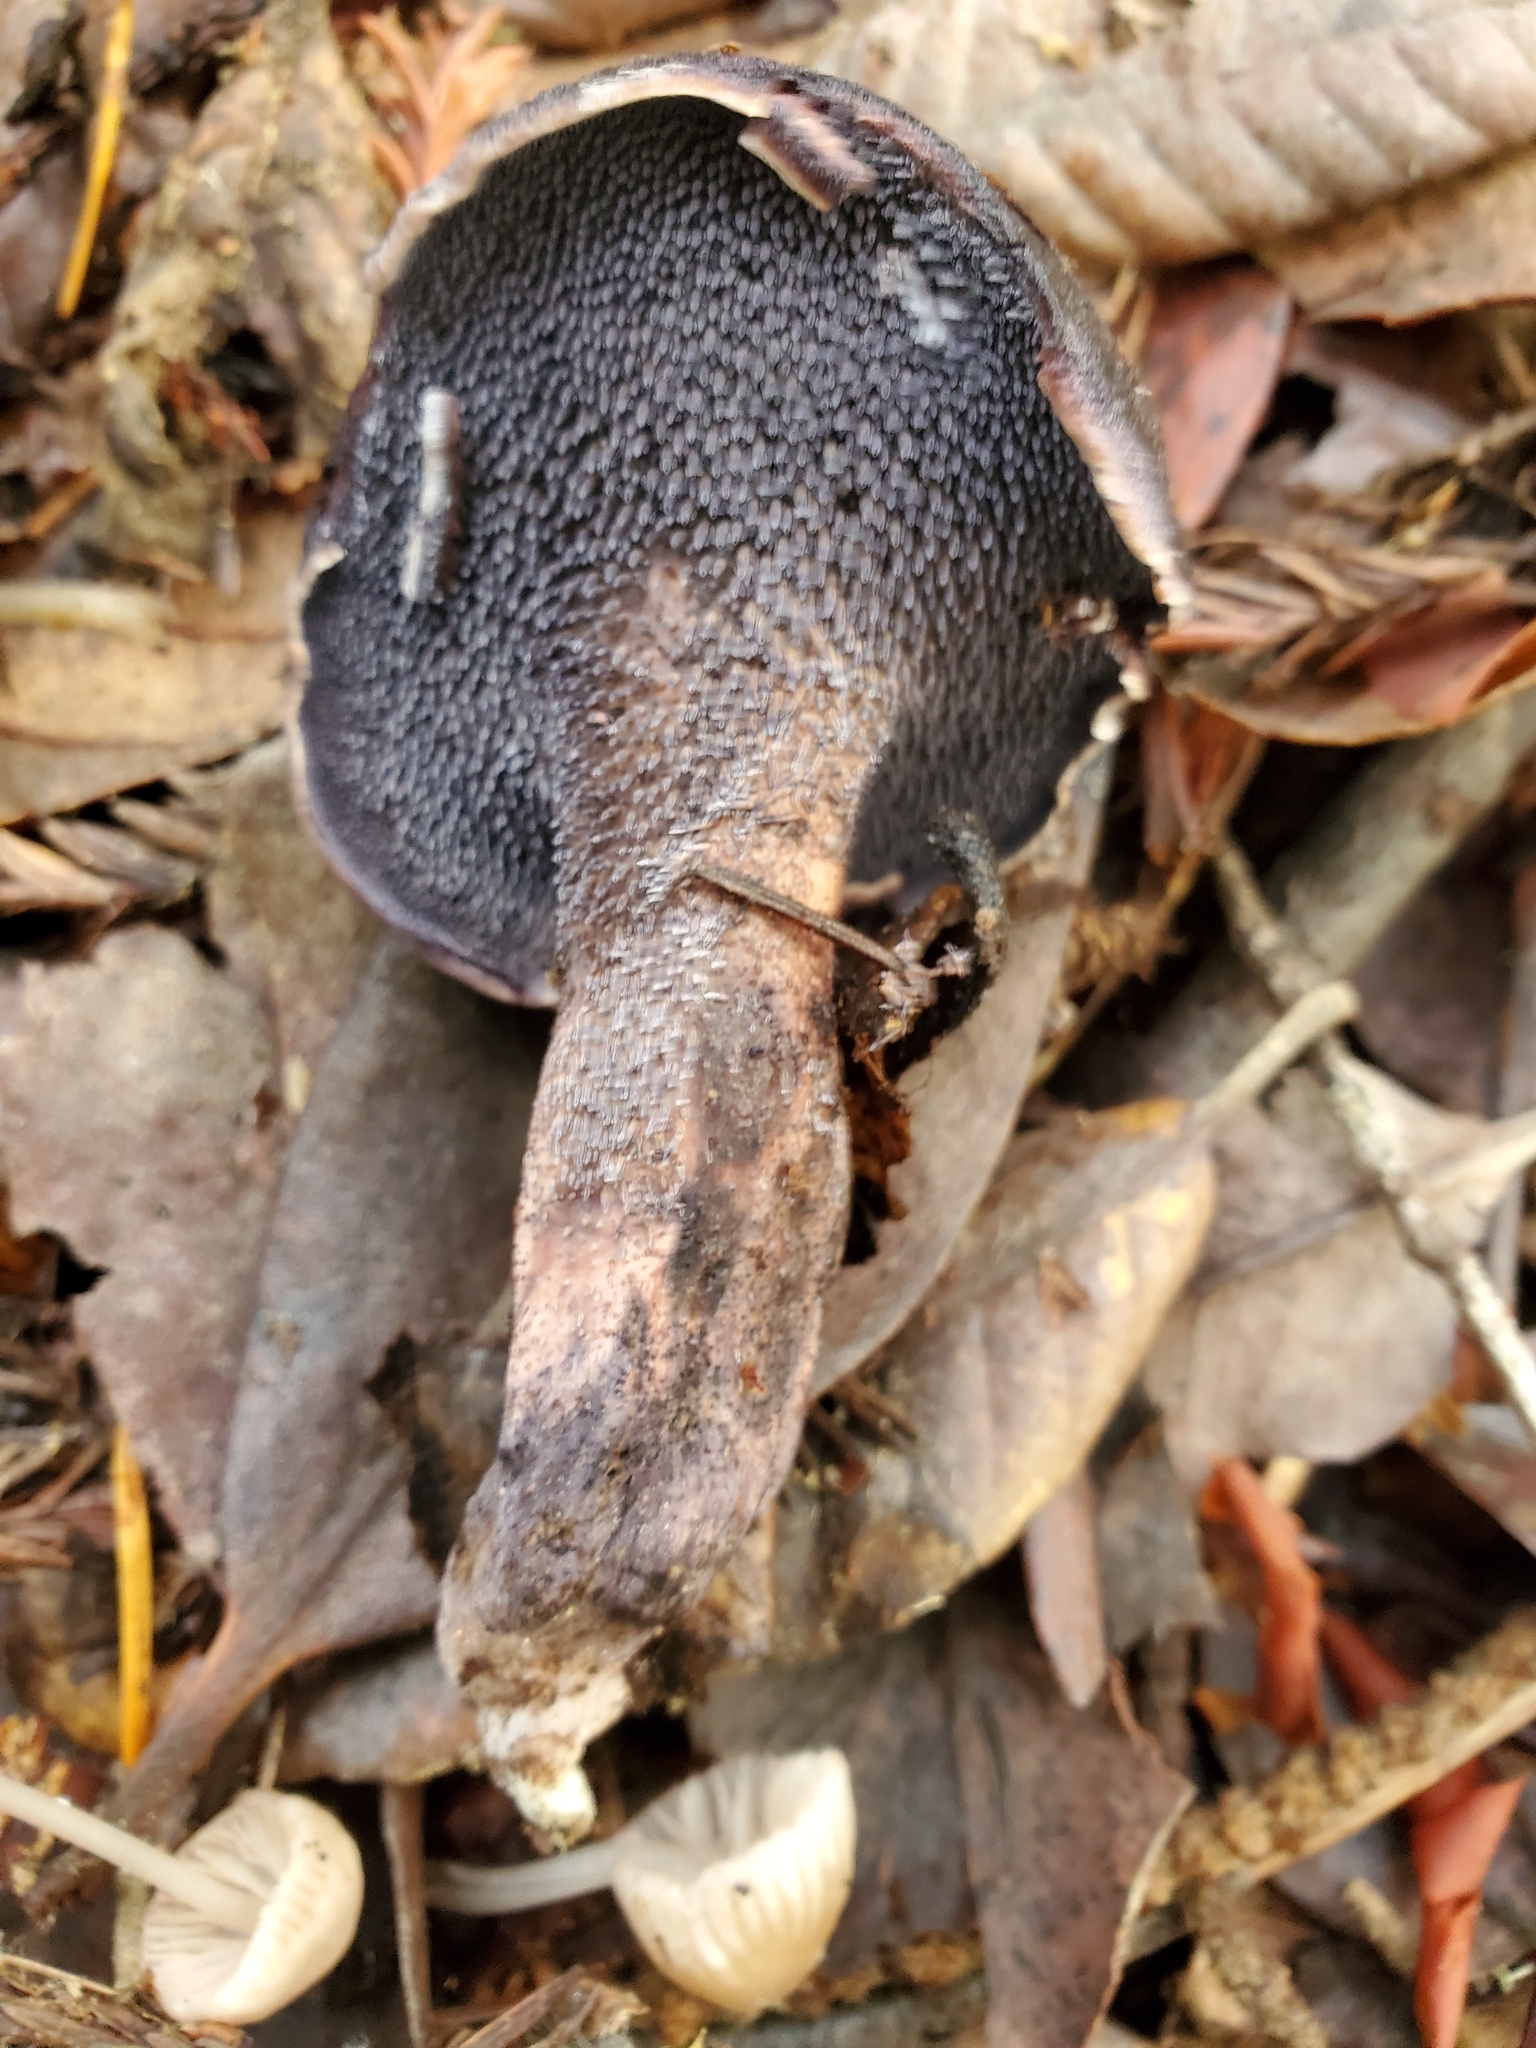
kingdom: Fungi
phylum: Basidiomycota
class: Agaricomycetes
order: Thelephorales
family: Bankeraceae
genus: Hydnellum
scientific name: Hydnellum fuscoindicum
